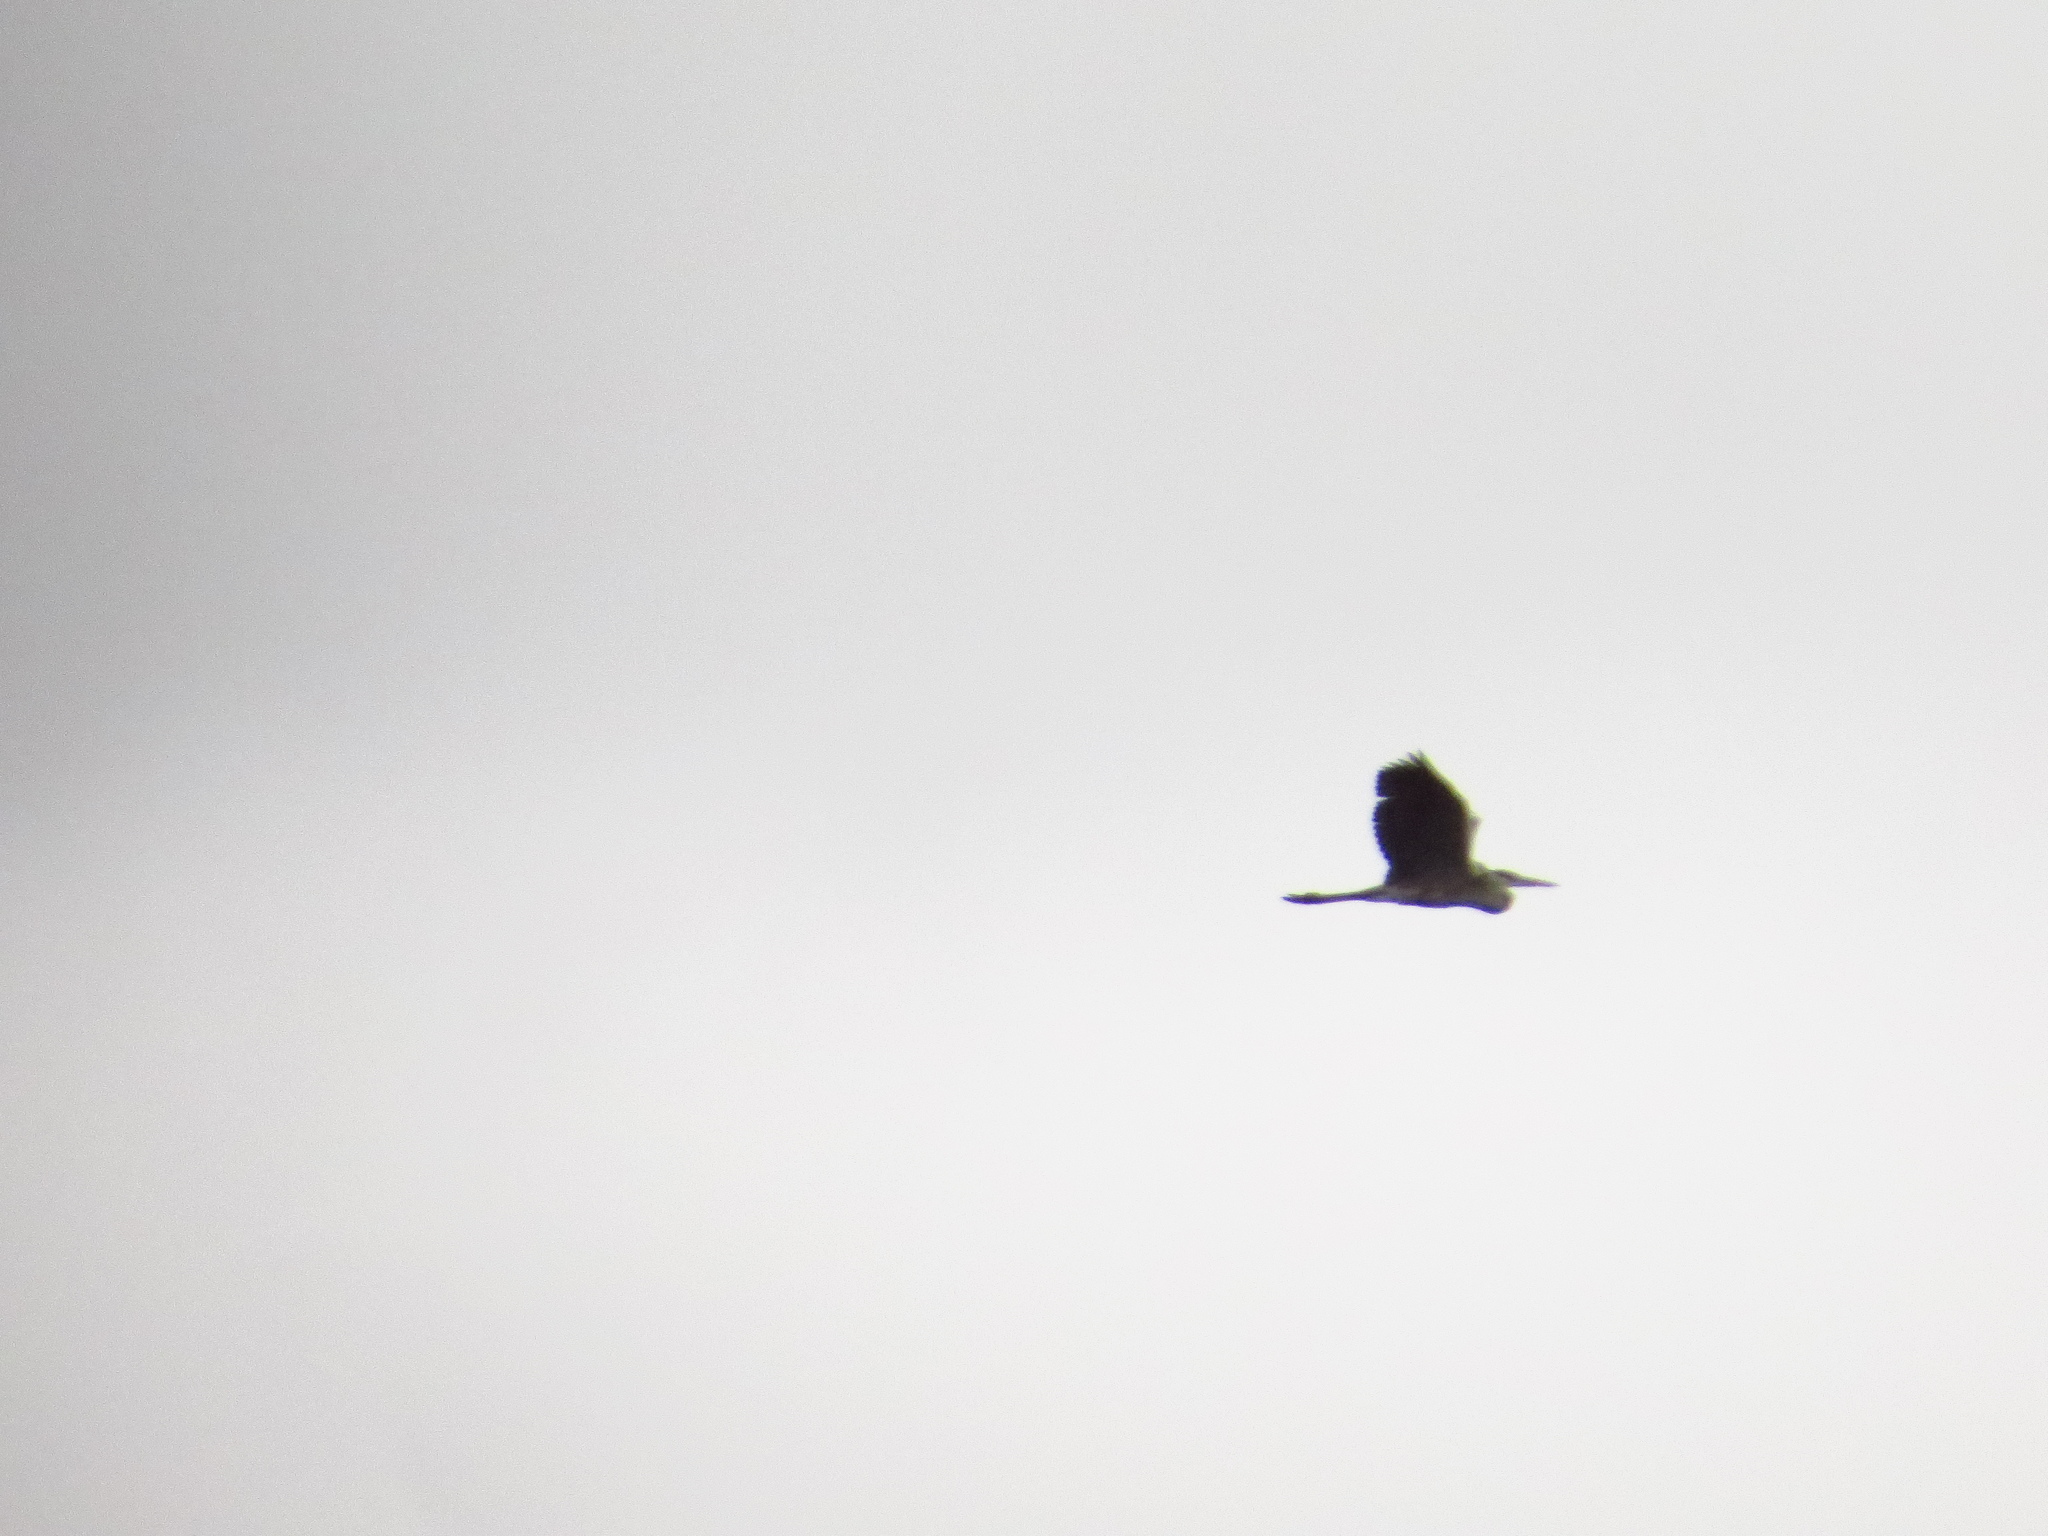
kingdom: Animalia
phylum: Chordata
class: Aves
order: Pelecaniformes
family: Ardeidae
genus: Ardea
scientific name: Ardea cocoi
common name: Cocoi heron
